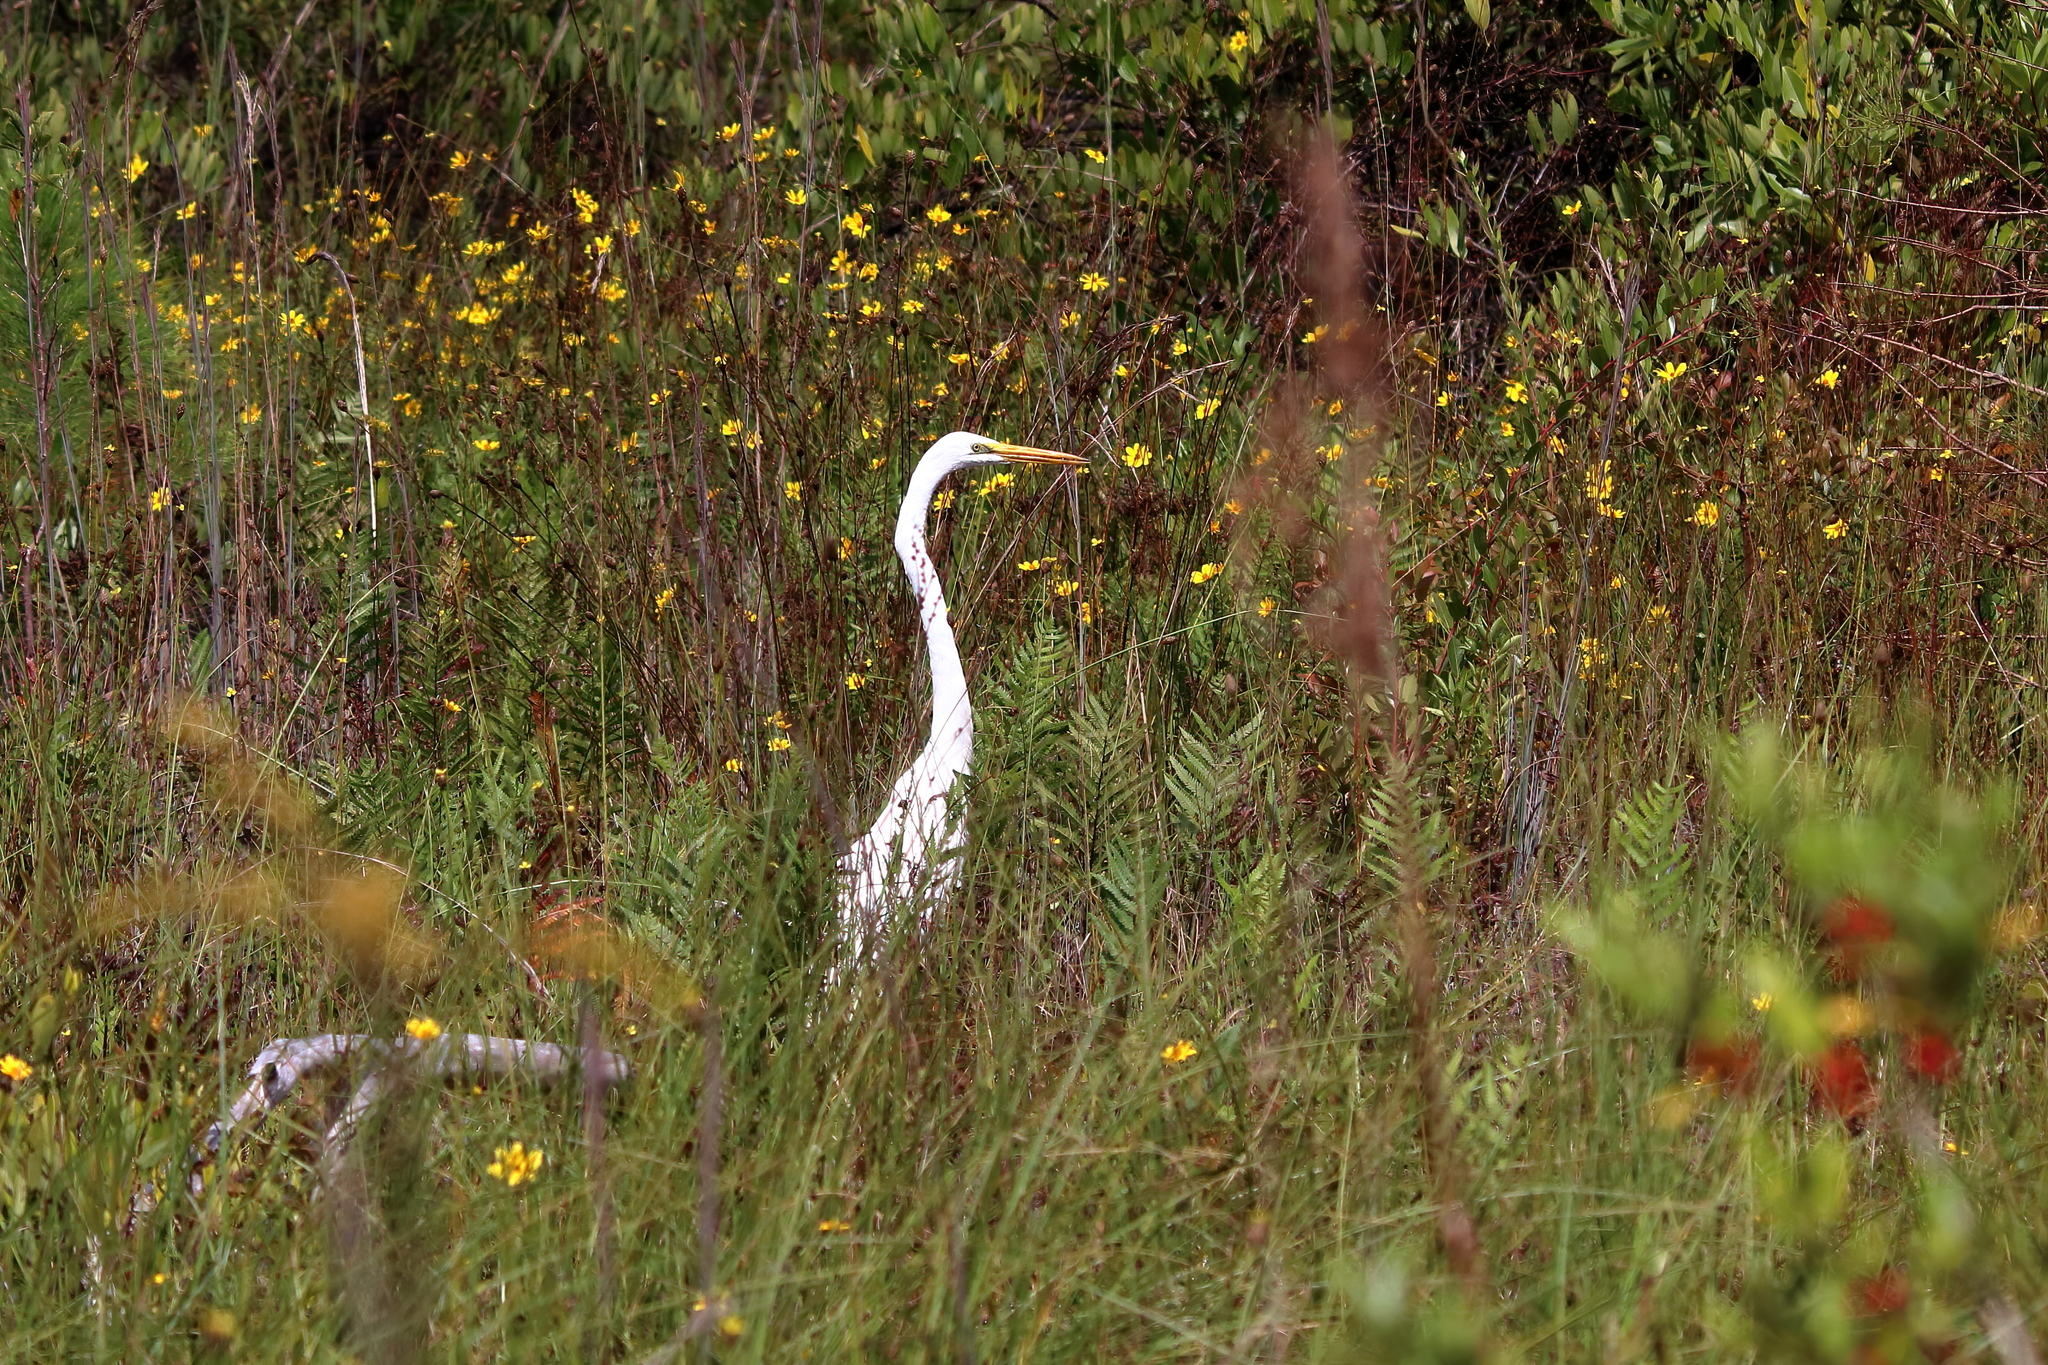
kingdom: Animalia
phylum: Chordata
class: Aves
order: Pelecaniformes
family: Ardeidae
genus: Ardea
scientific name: Ardea alba
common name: Great egret
